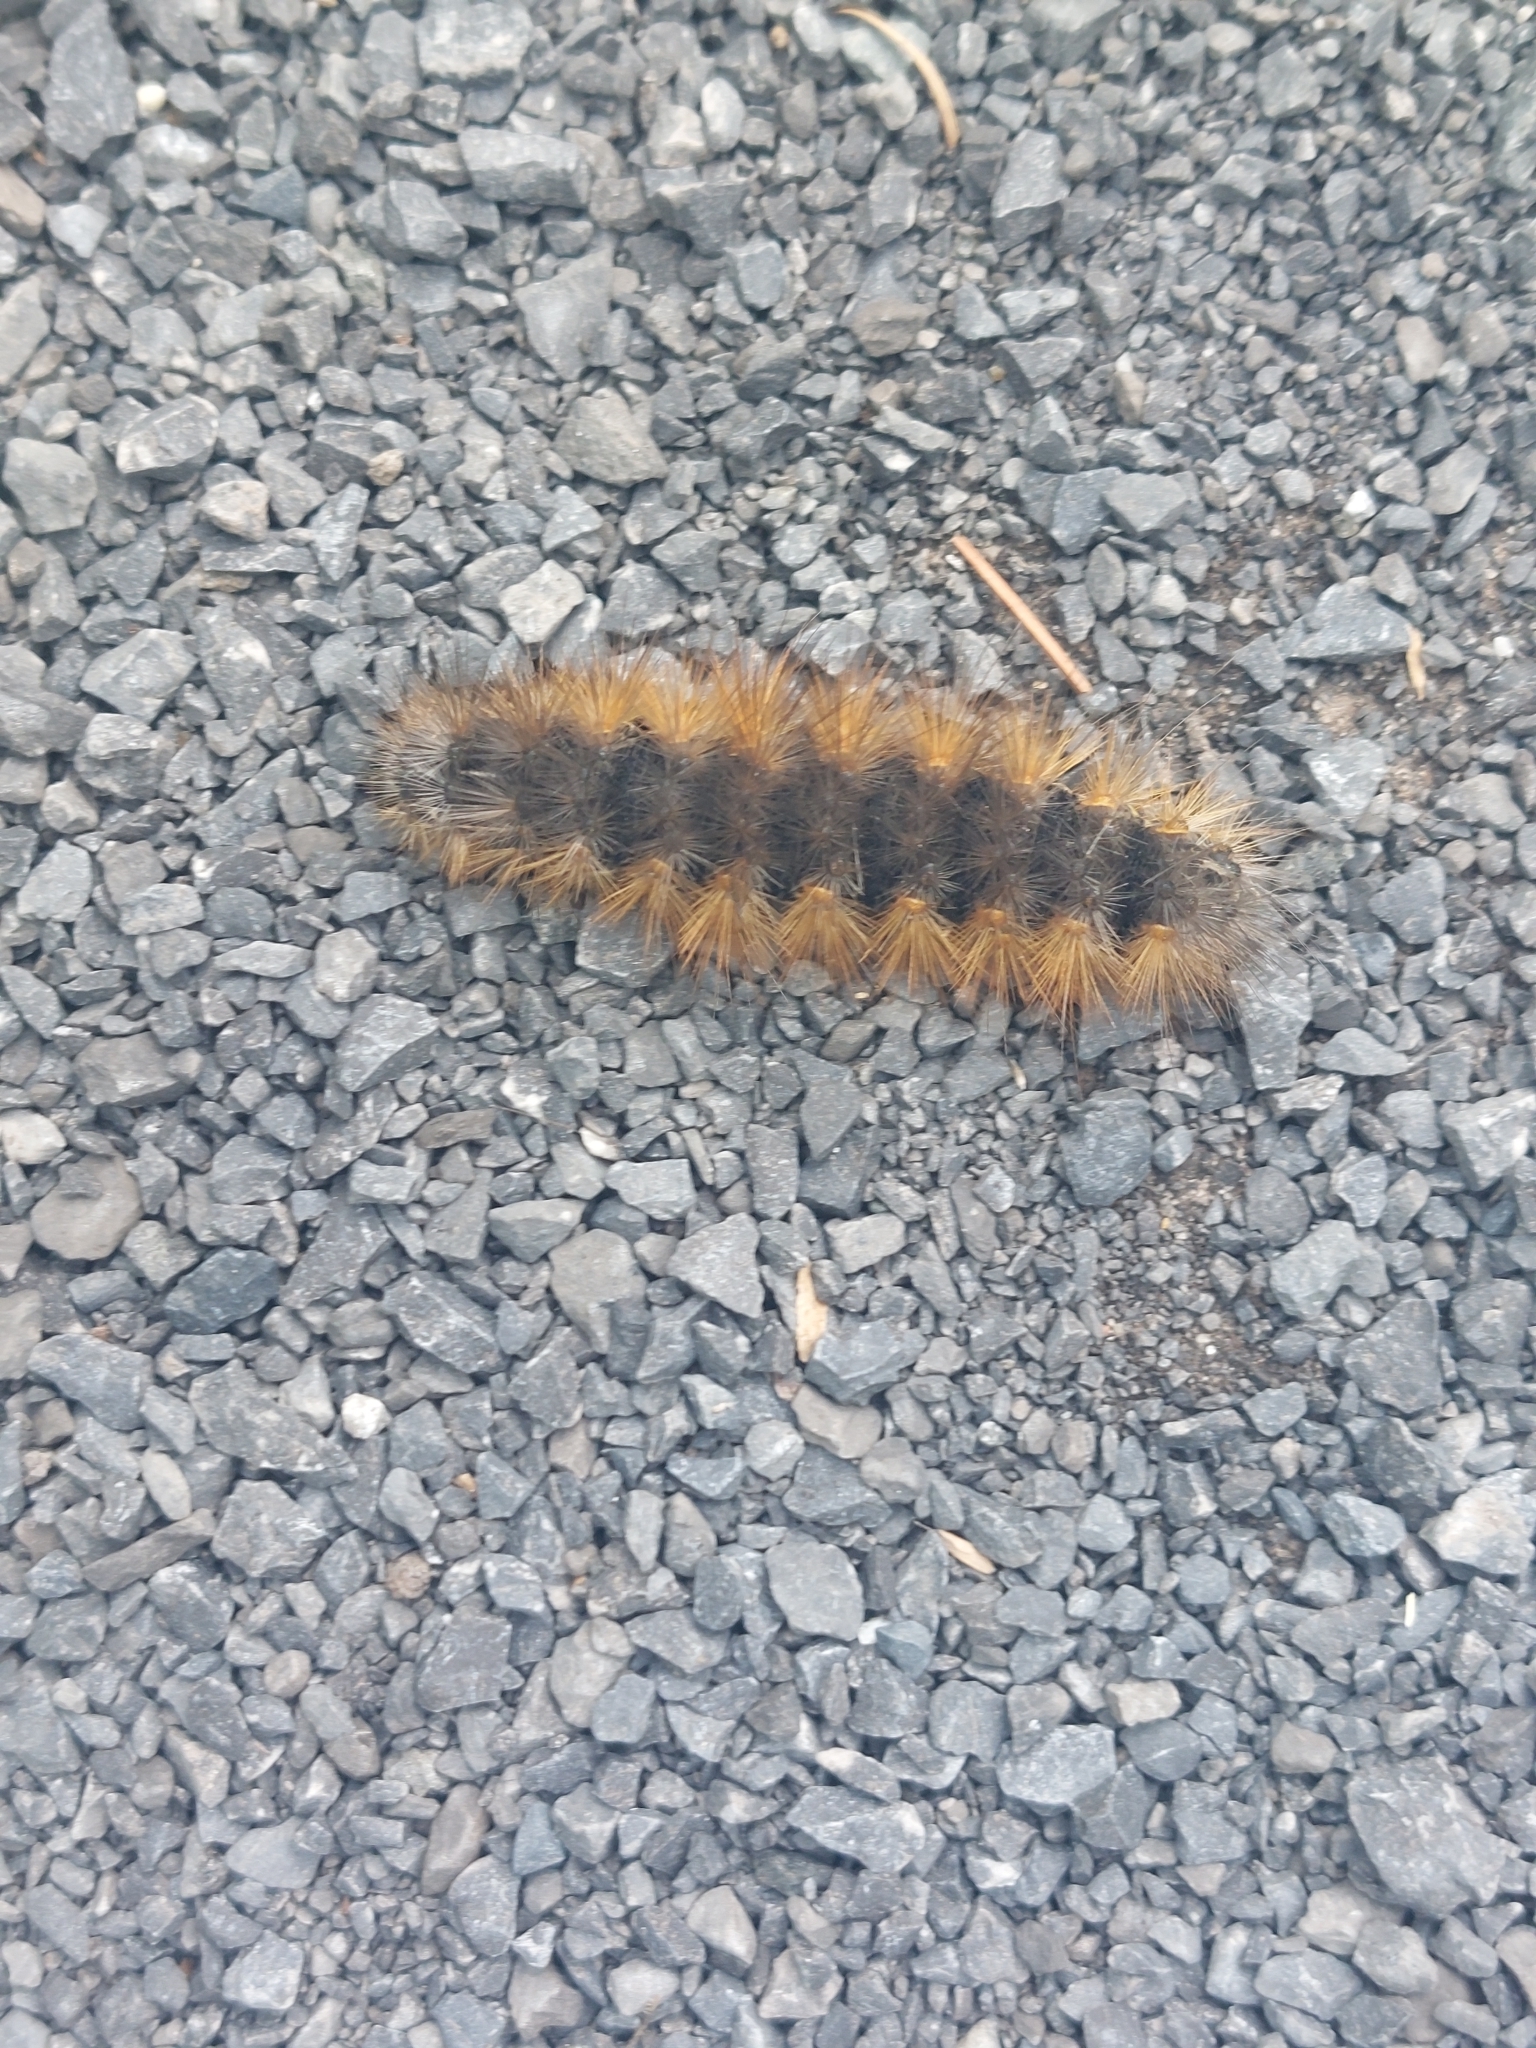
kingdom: Animalia
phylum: Arthropoda
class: Insecta
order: Lepidoptera
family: Erebidae
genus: Estigmene
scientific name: Estigmene acrea
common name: Salt marsh moth
